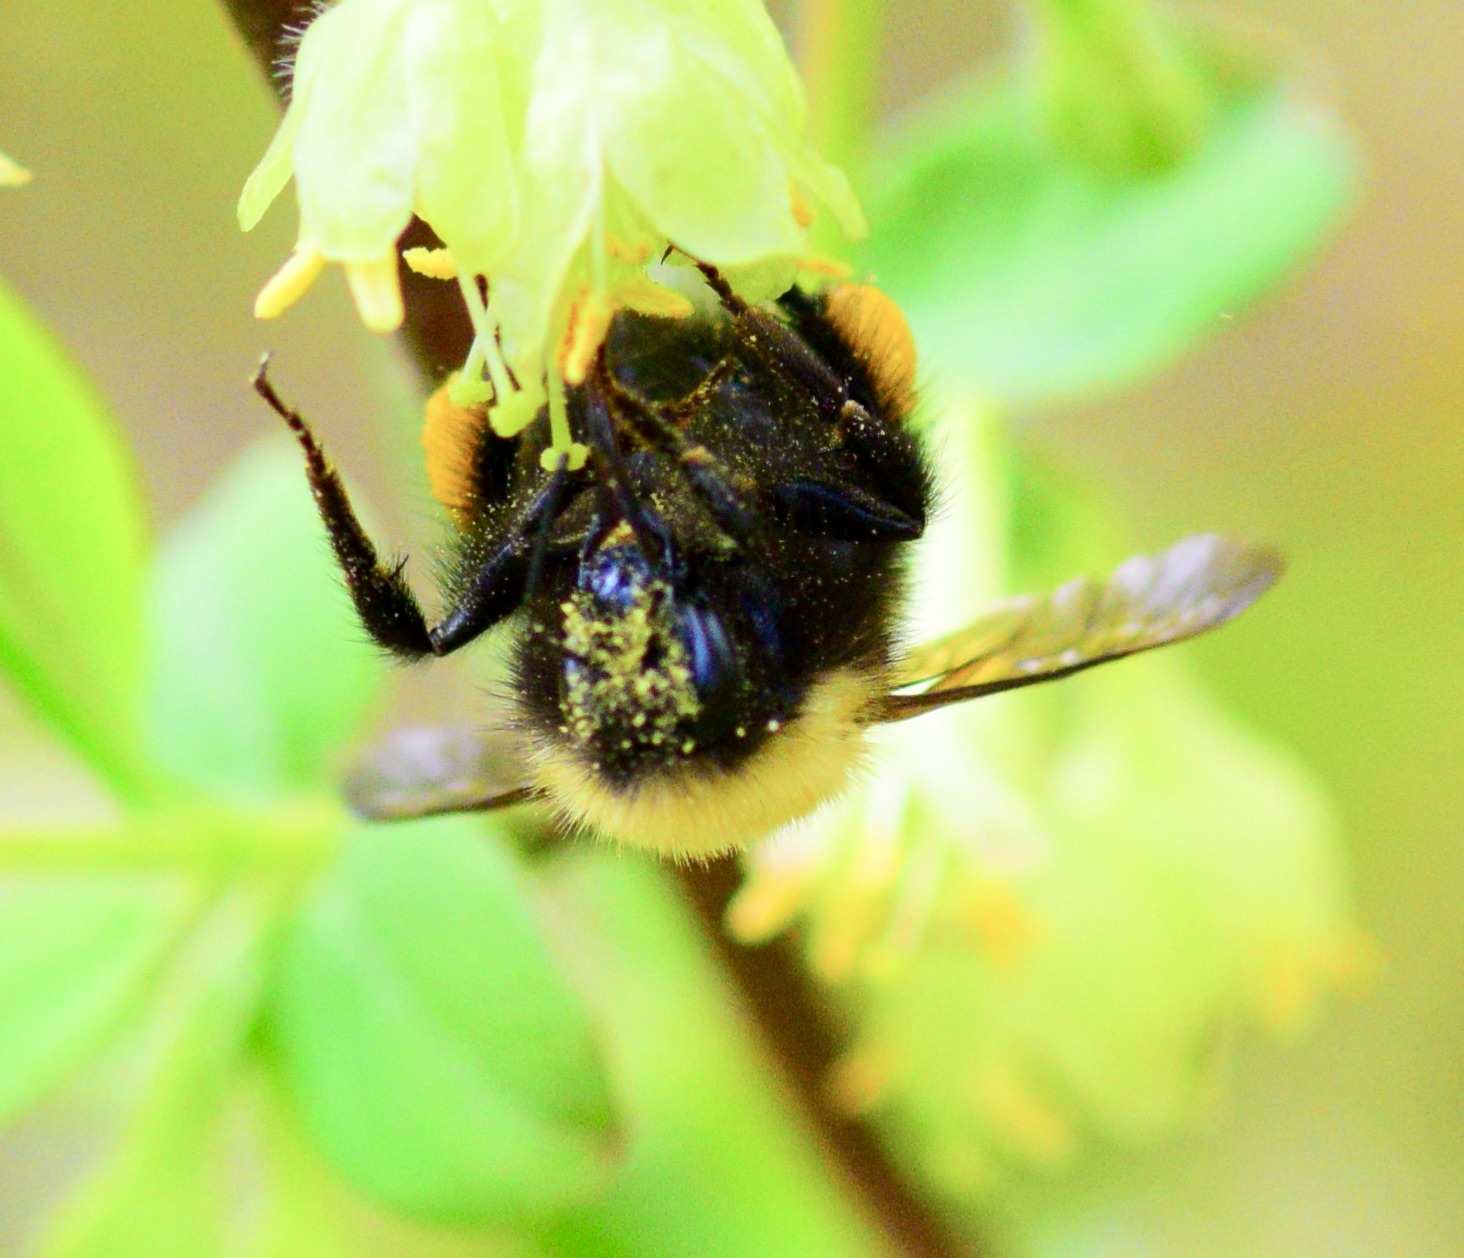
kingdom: Animalia
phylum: Arthropoda
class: Insecta
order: Hymenoptera
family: Apidae
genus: Bombus
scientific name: Bombus perplexus
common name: Confusing bumble bee
